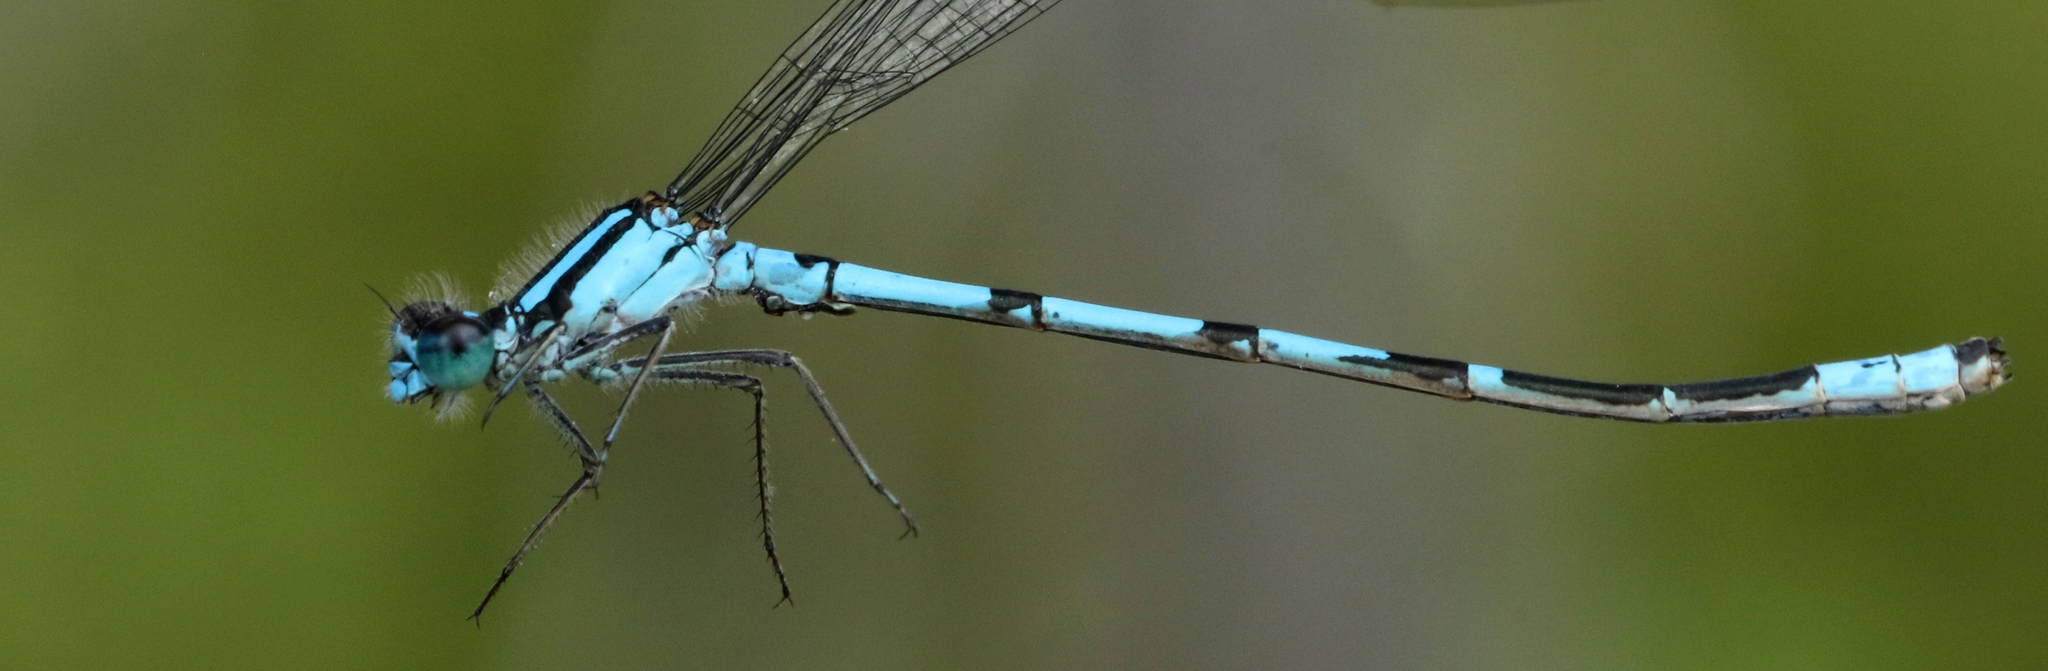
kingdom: Animalia
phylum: Arthropoda
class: Insecta
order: Odonata
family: Coenagrionidae
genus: Enallagma
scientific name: Enallagma ebrium
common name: Marsh bluet
